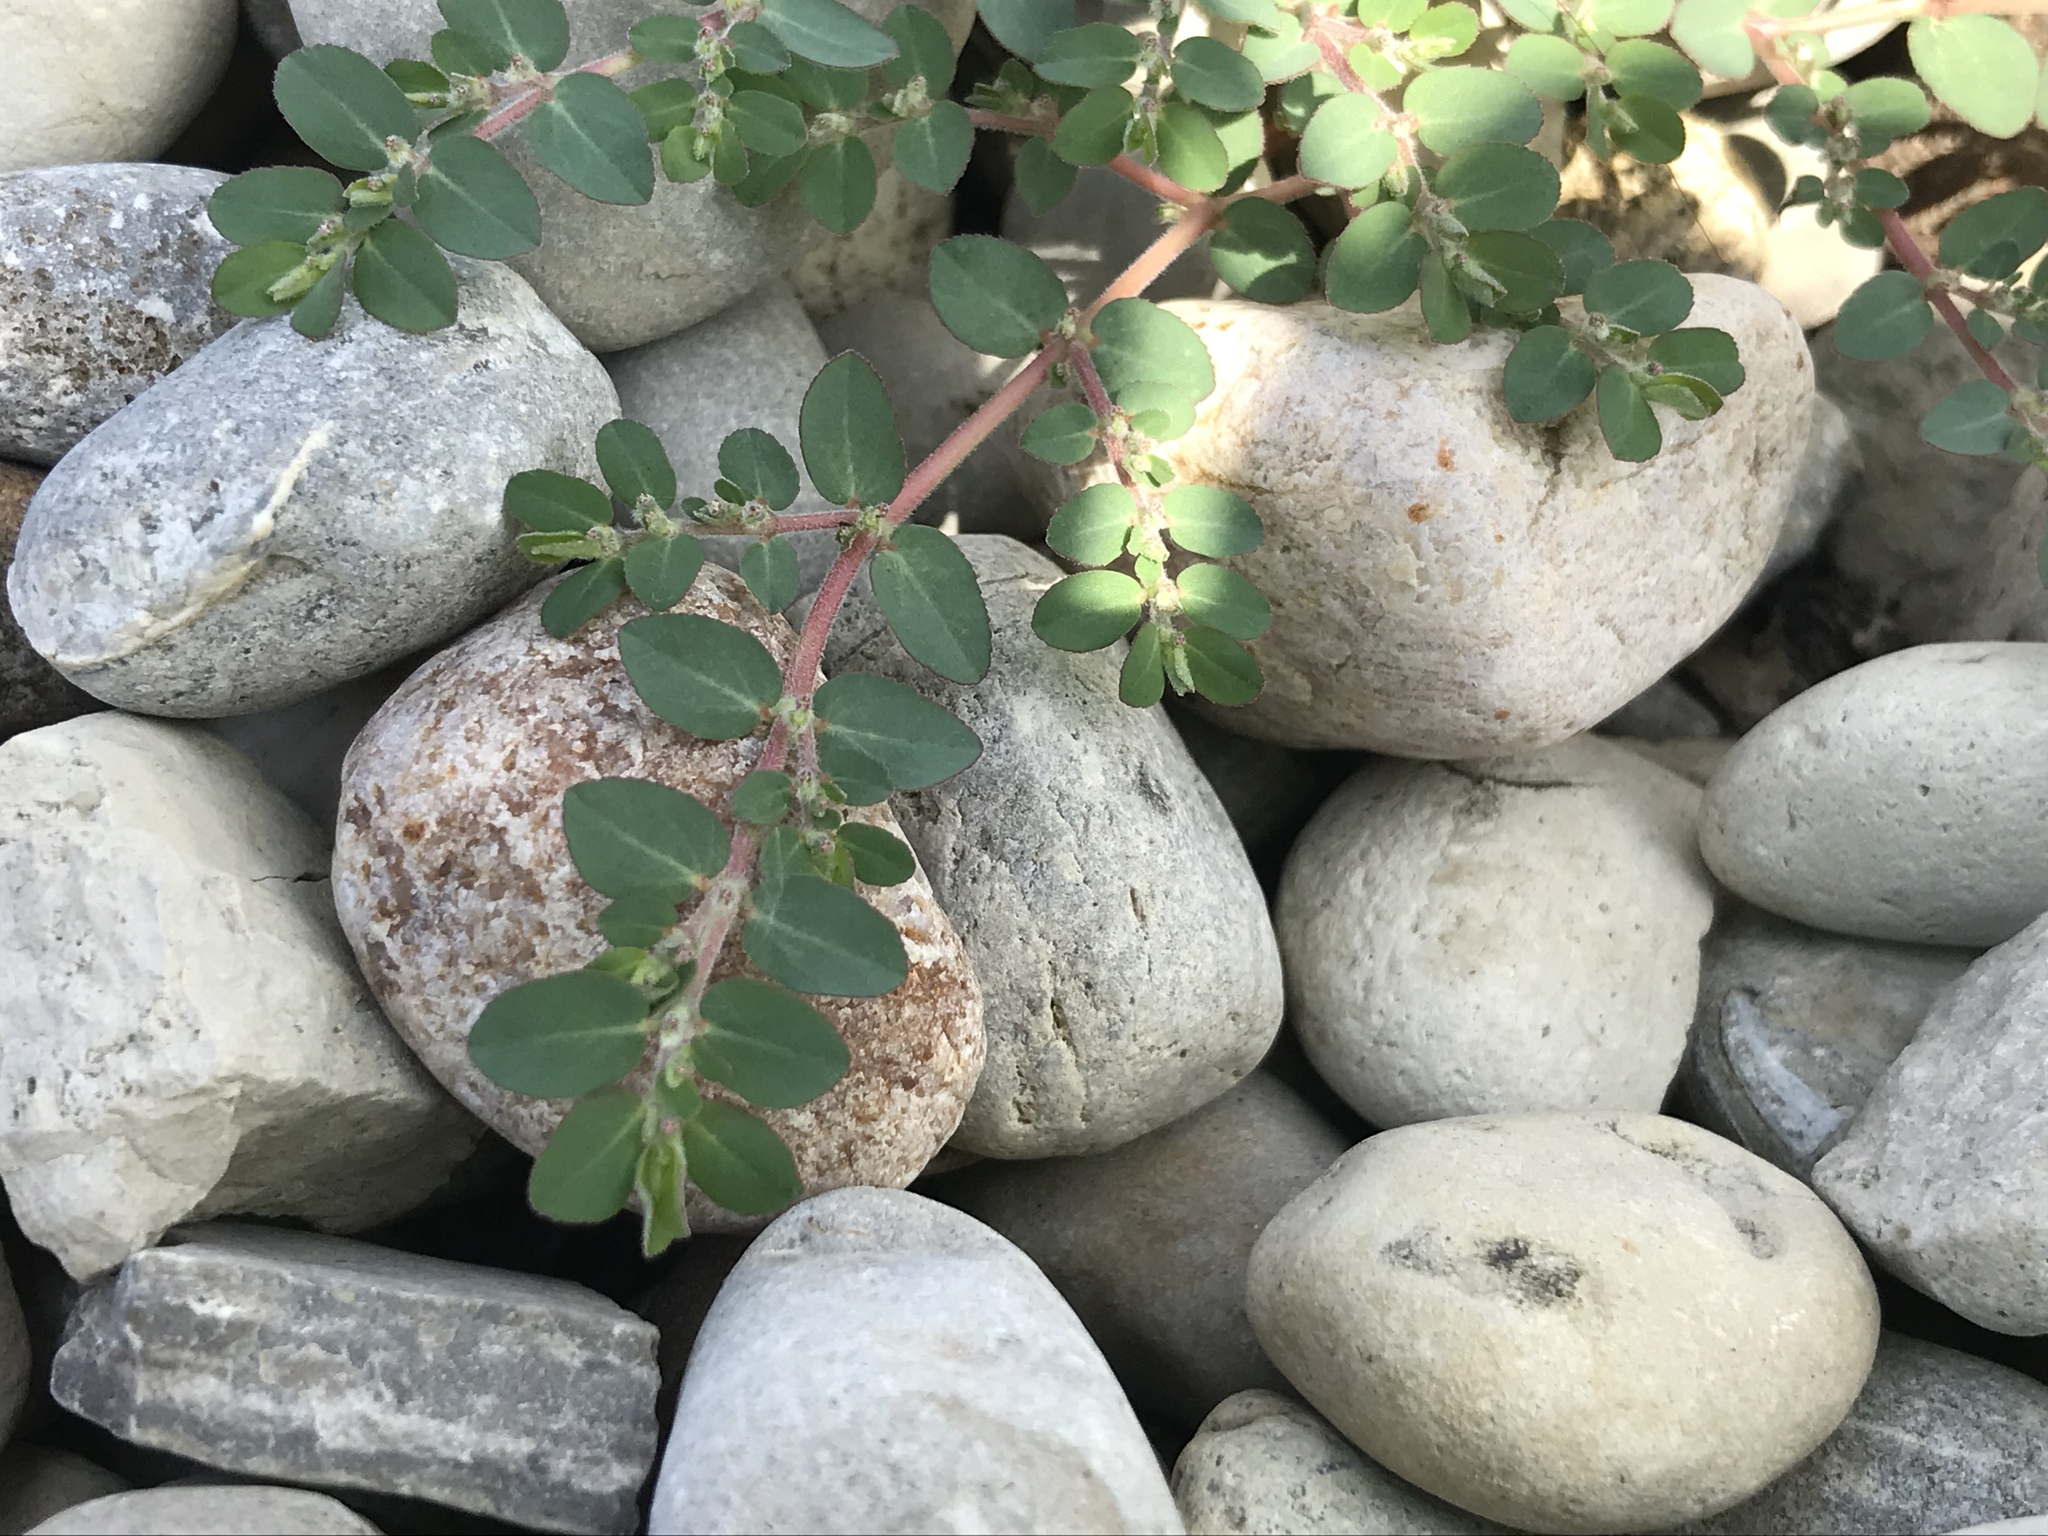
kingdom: Plantae
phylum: Tracheophyta
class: Magnoliopsida
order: Malpighiales
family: Euphorbiaceae
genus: Euphorbia
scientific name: Euphorbia prostrata
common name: Prostrate sandmat
